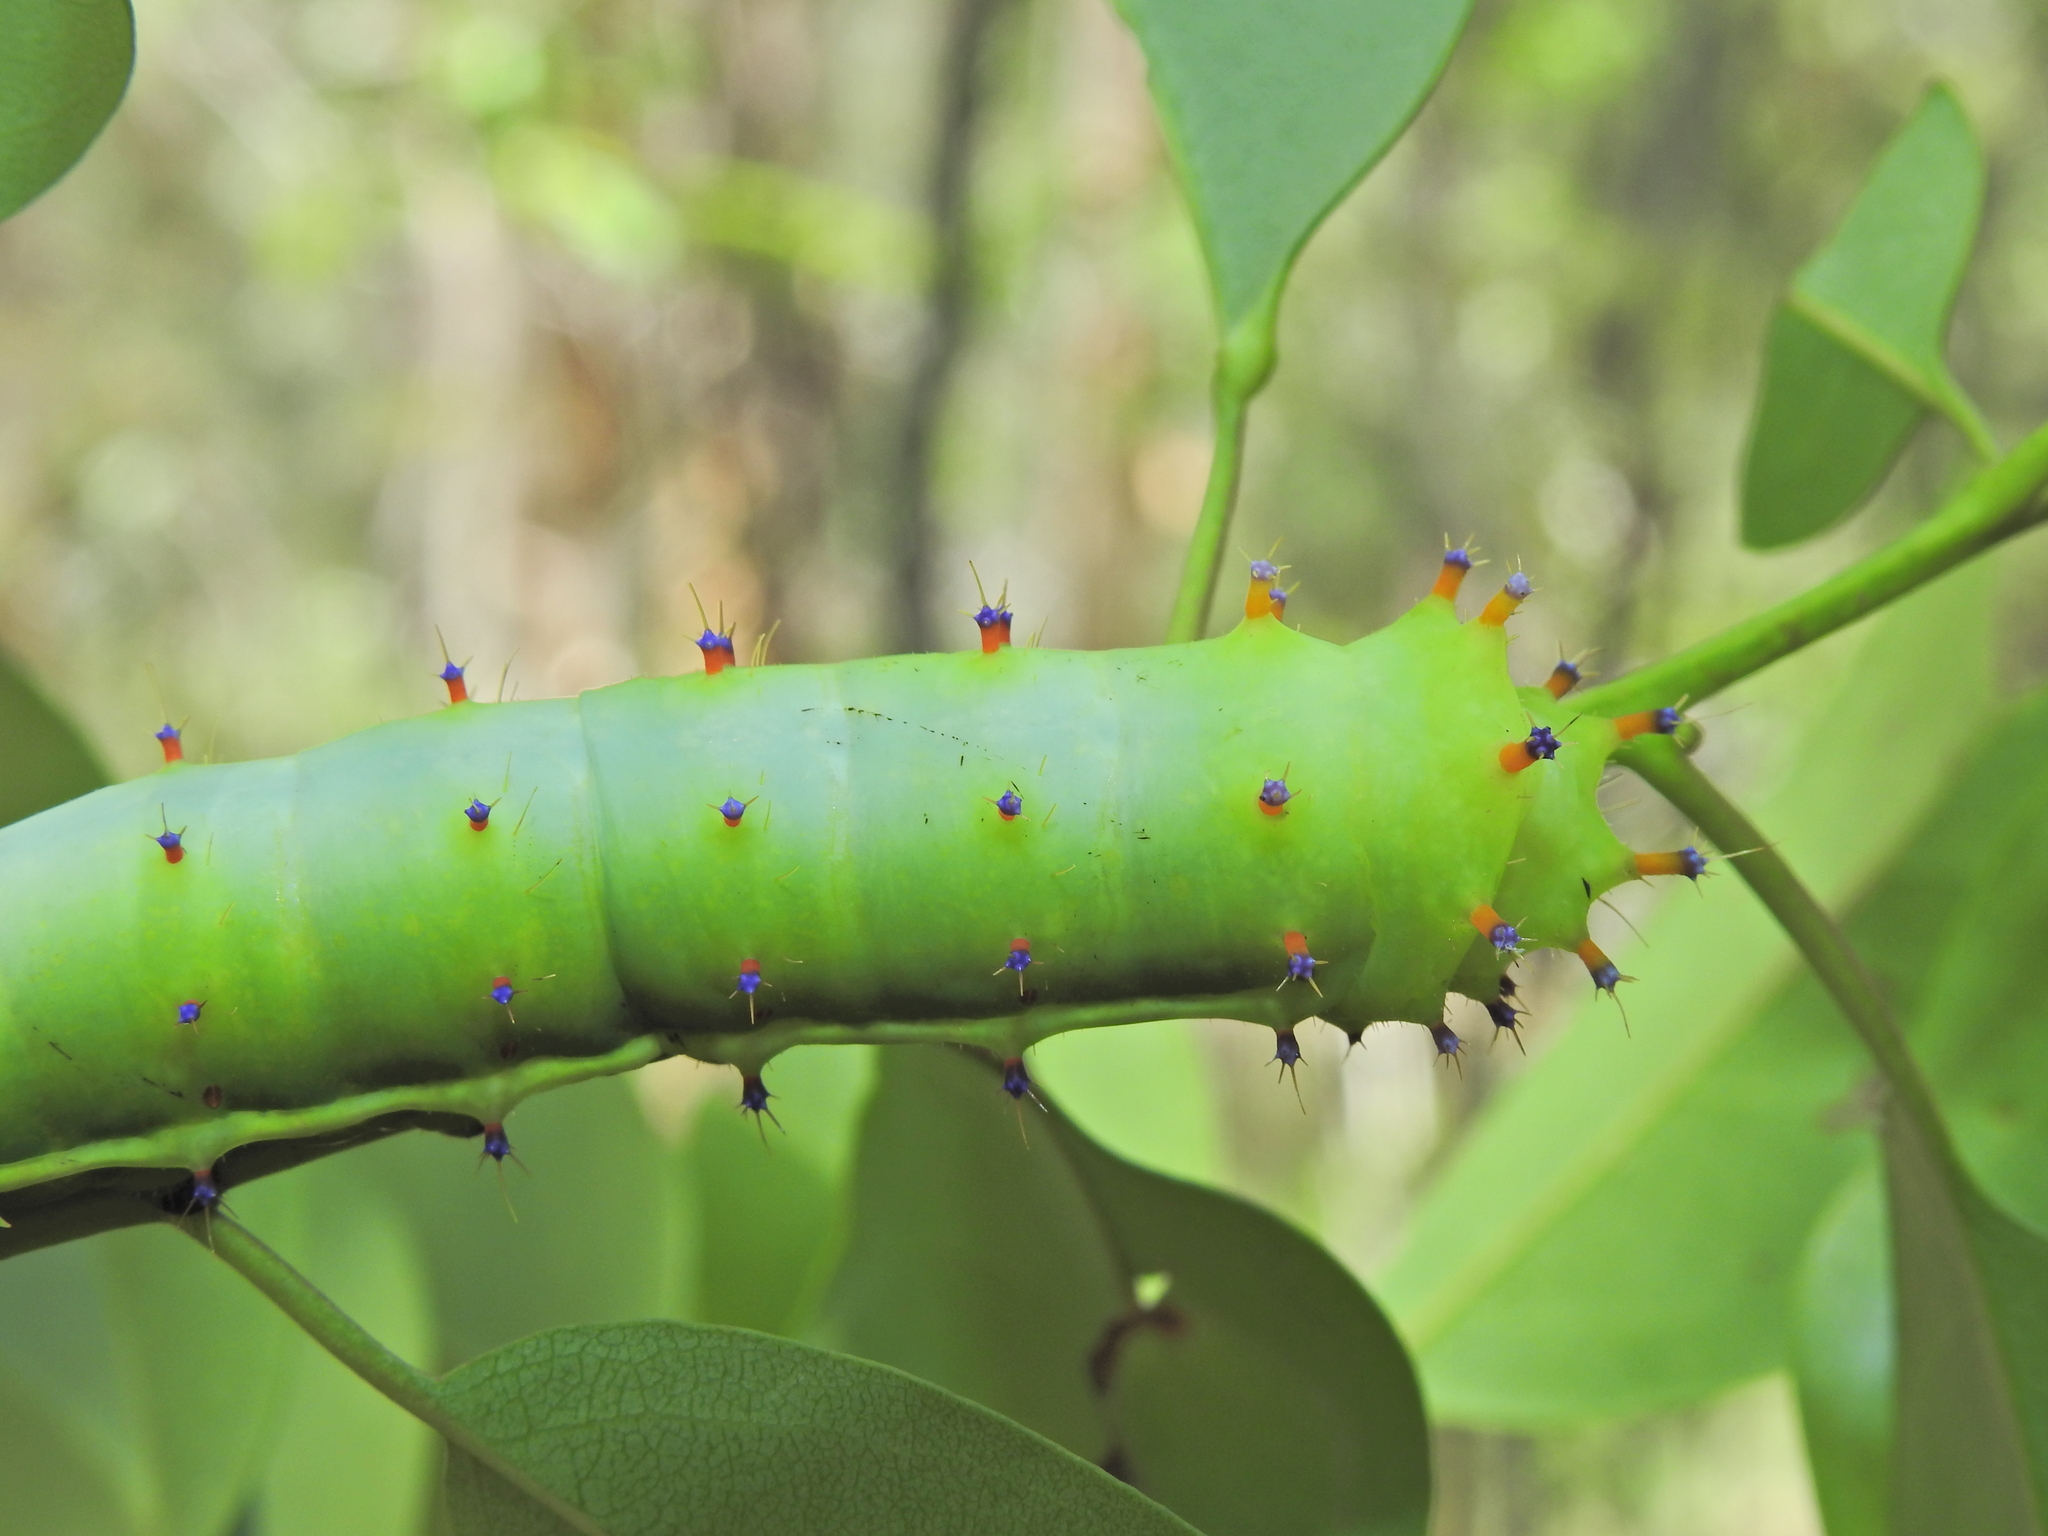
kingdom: Animalia
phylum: Arthropoda
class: Insecta
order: Lepidoptera
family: Saturniidae
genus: Opodiphthera
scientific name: Opodiphthera
